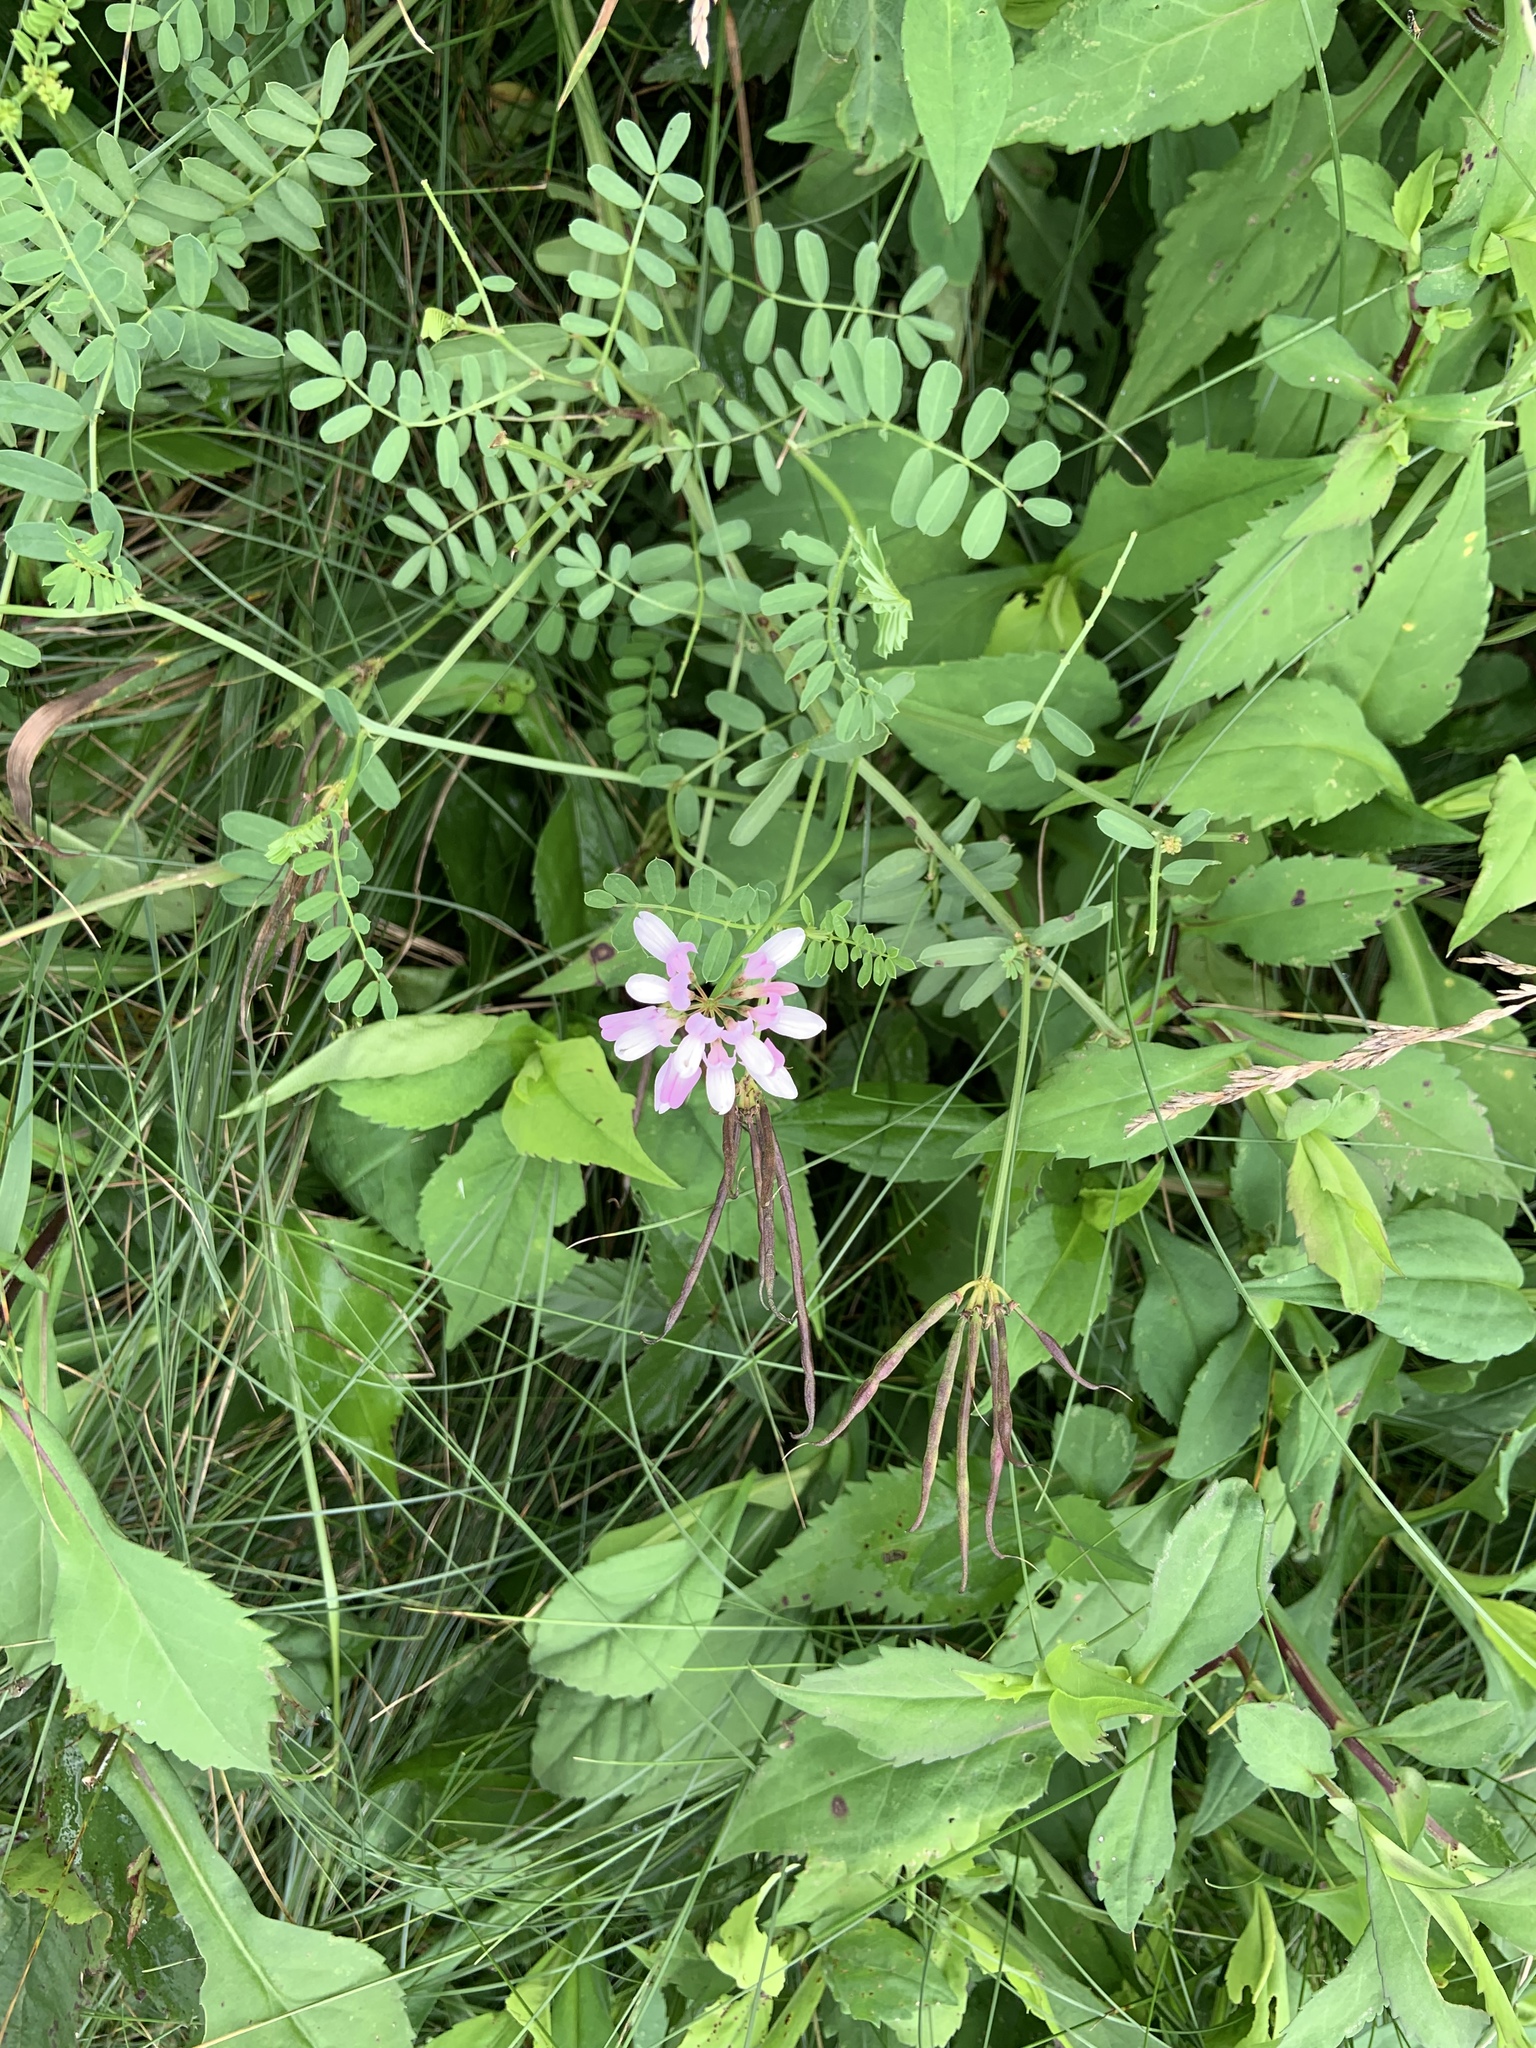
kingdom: Plantae
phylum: Tracheophyta
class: Magnoliopsida
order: Fabales
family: Fabaceae
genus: Coronilla
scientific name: Coronilla varia
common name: Crownvetch
